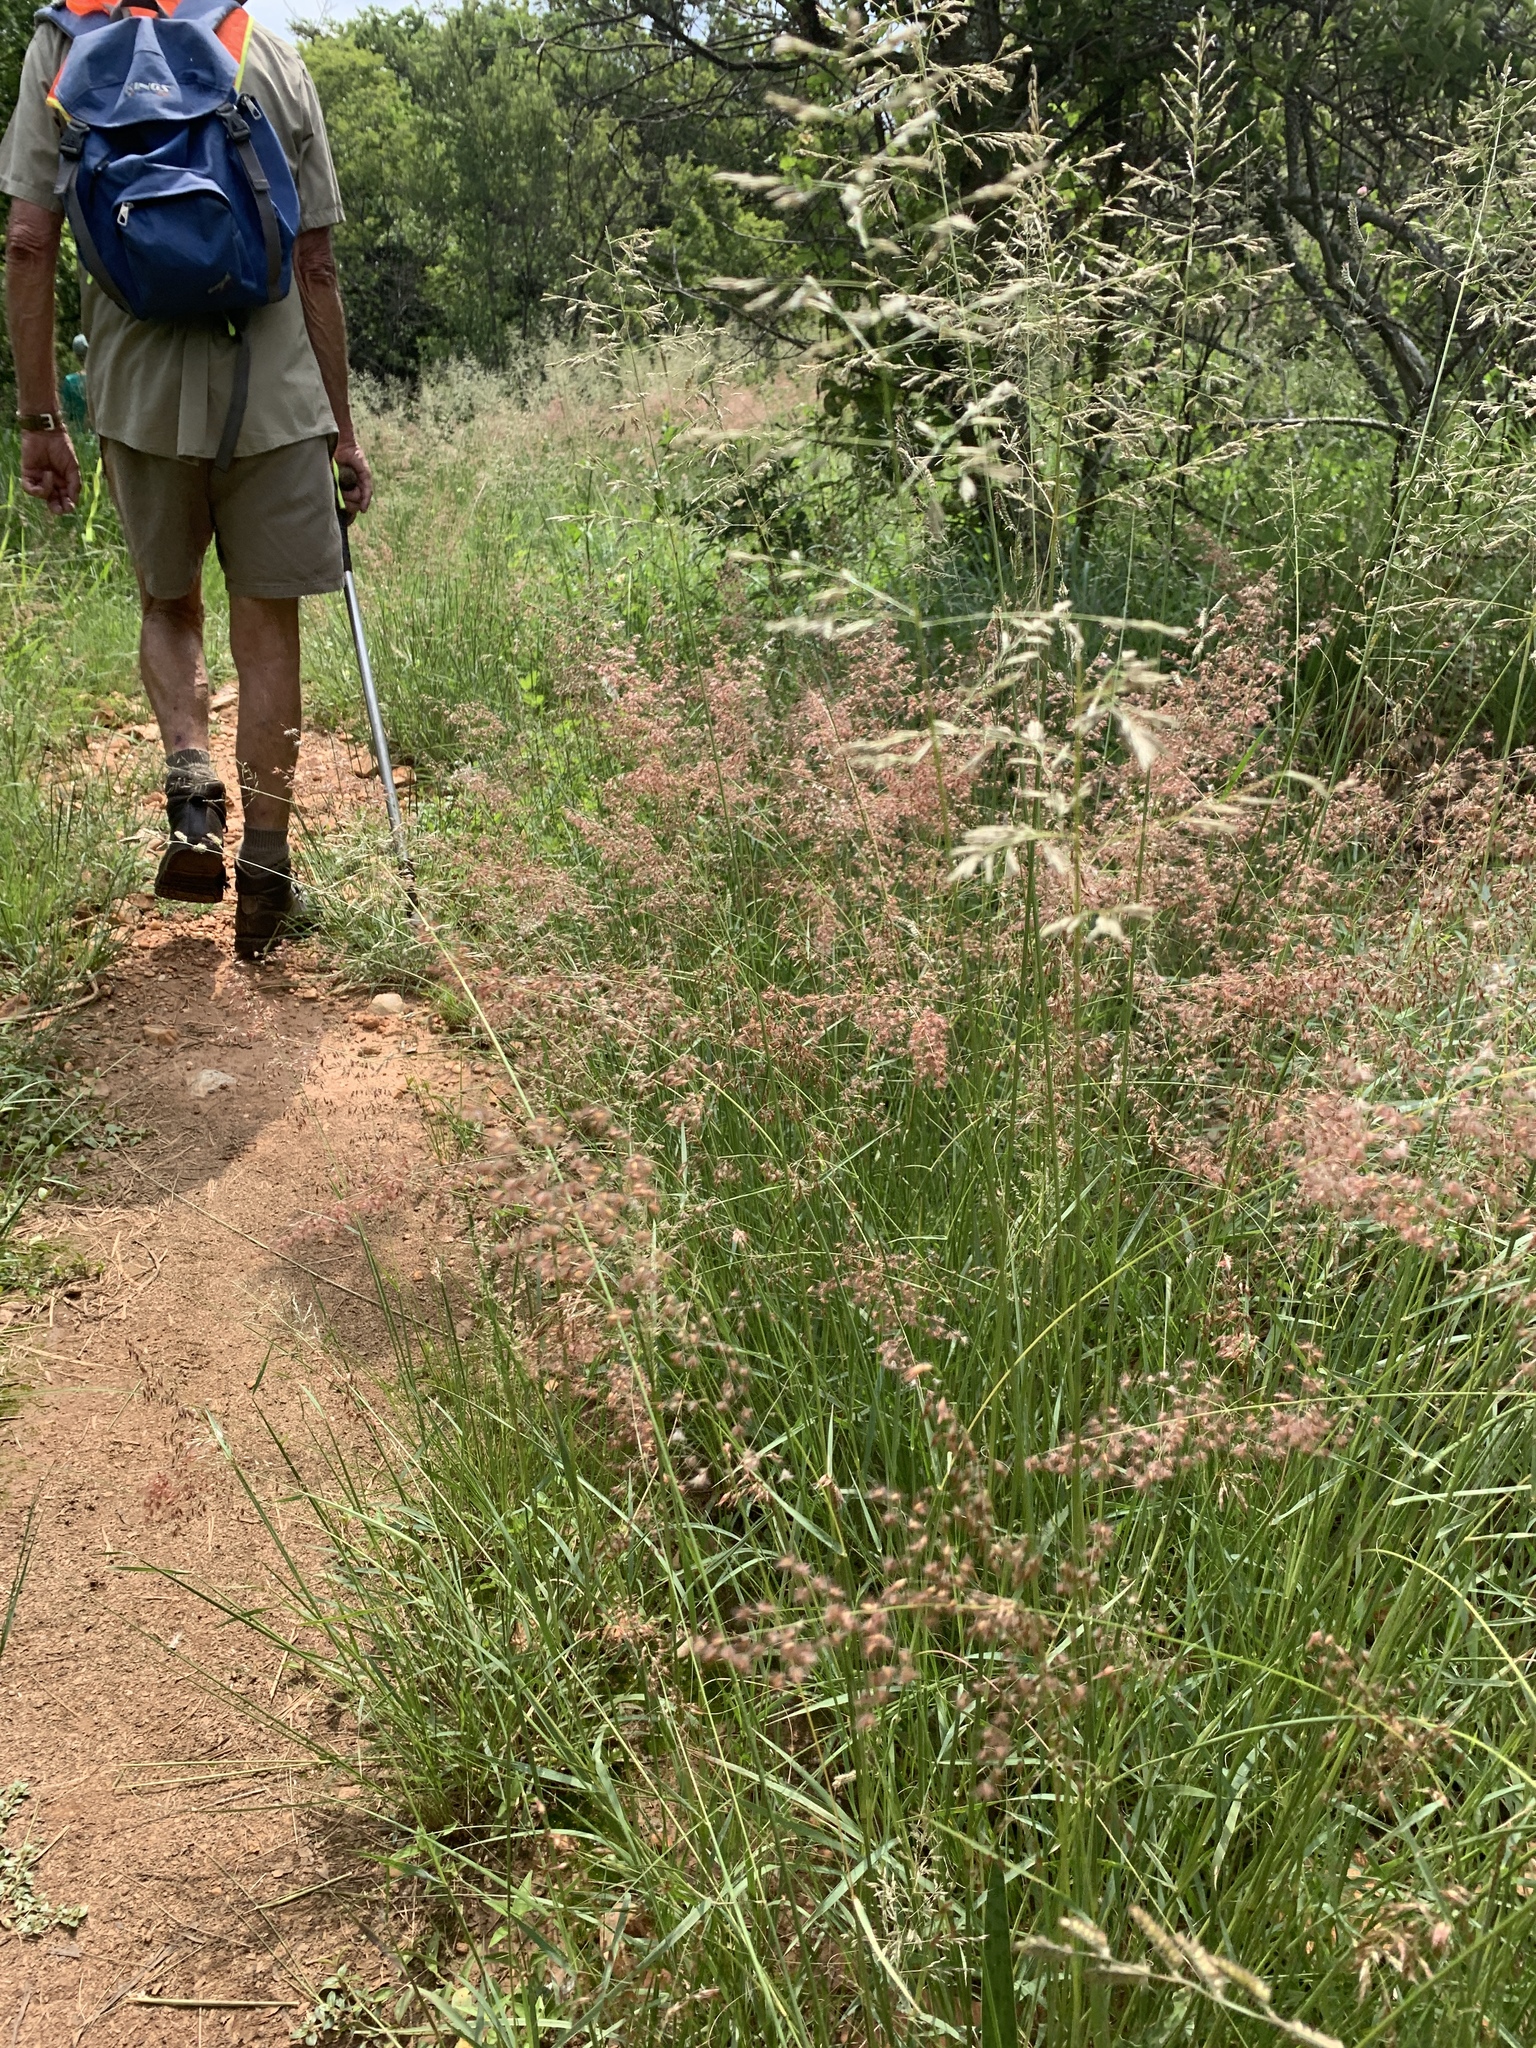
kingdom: Plantae
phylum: Tracheophyta
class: Liliopsida
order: Poales
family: Poaceae
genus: Melinis
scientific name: Melinis repens
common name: Rose natal grass
